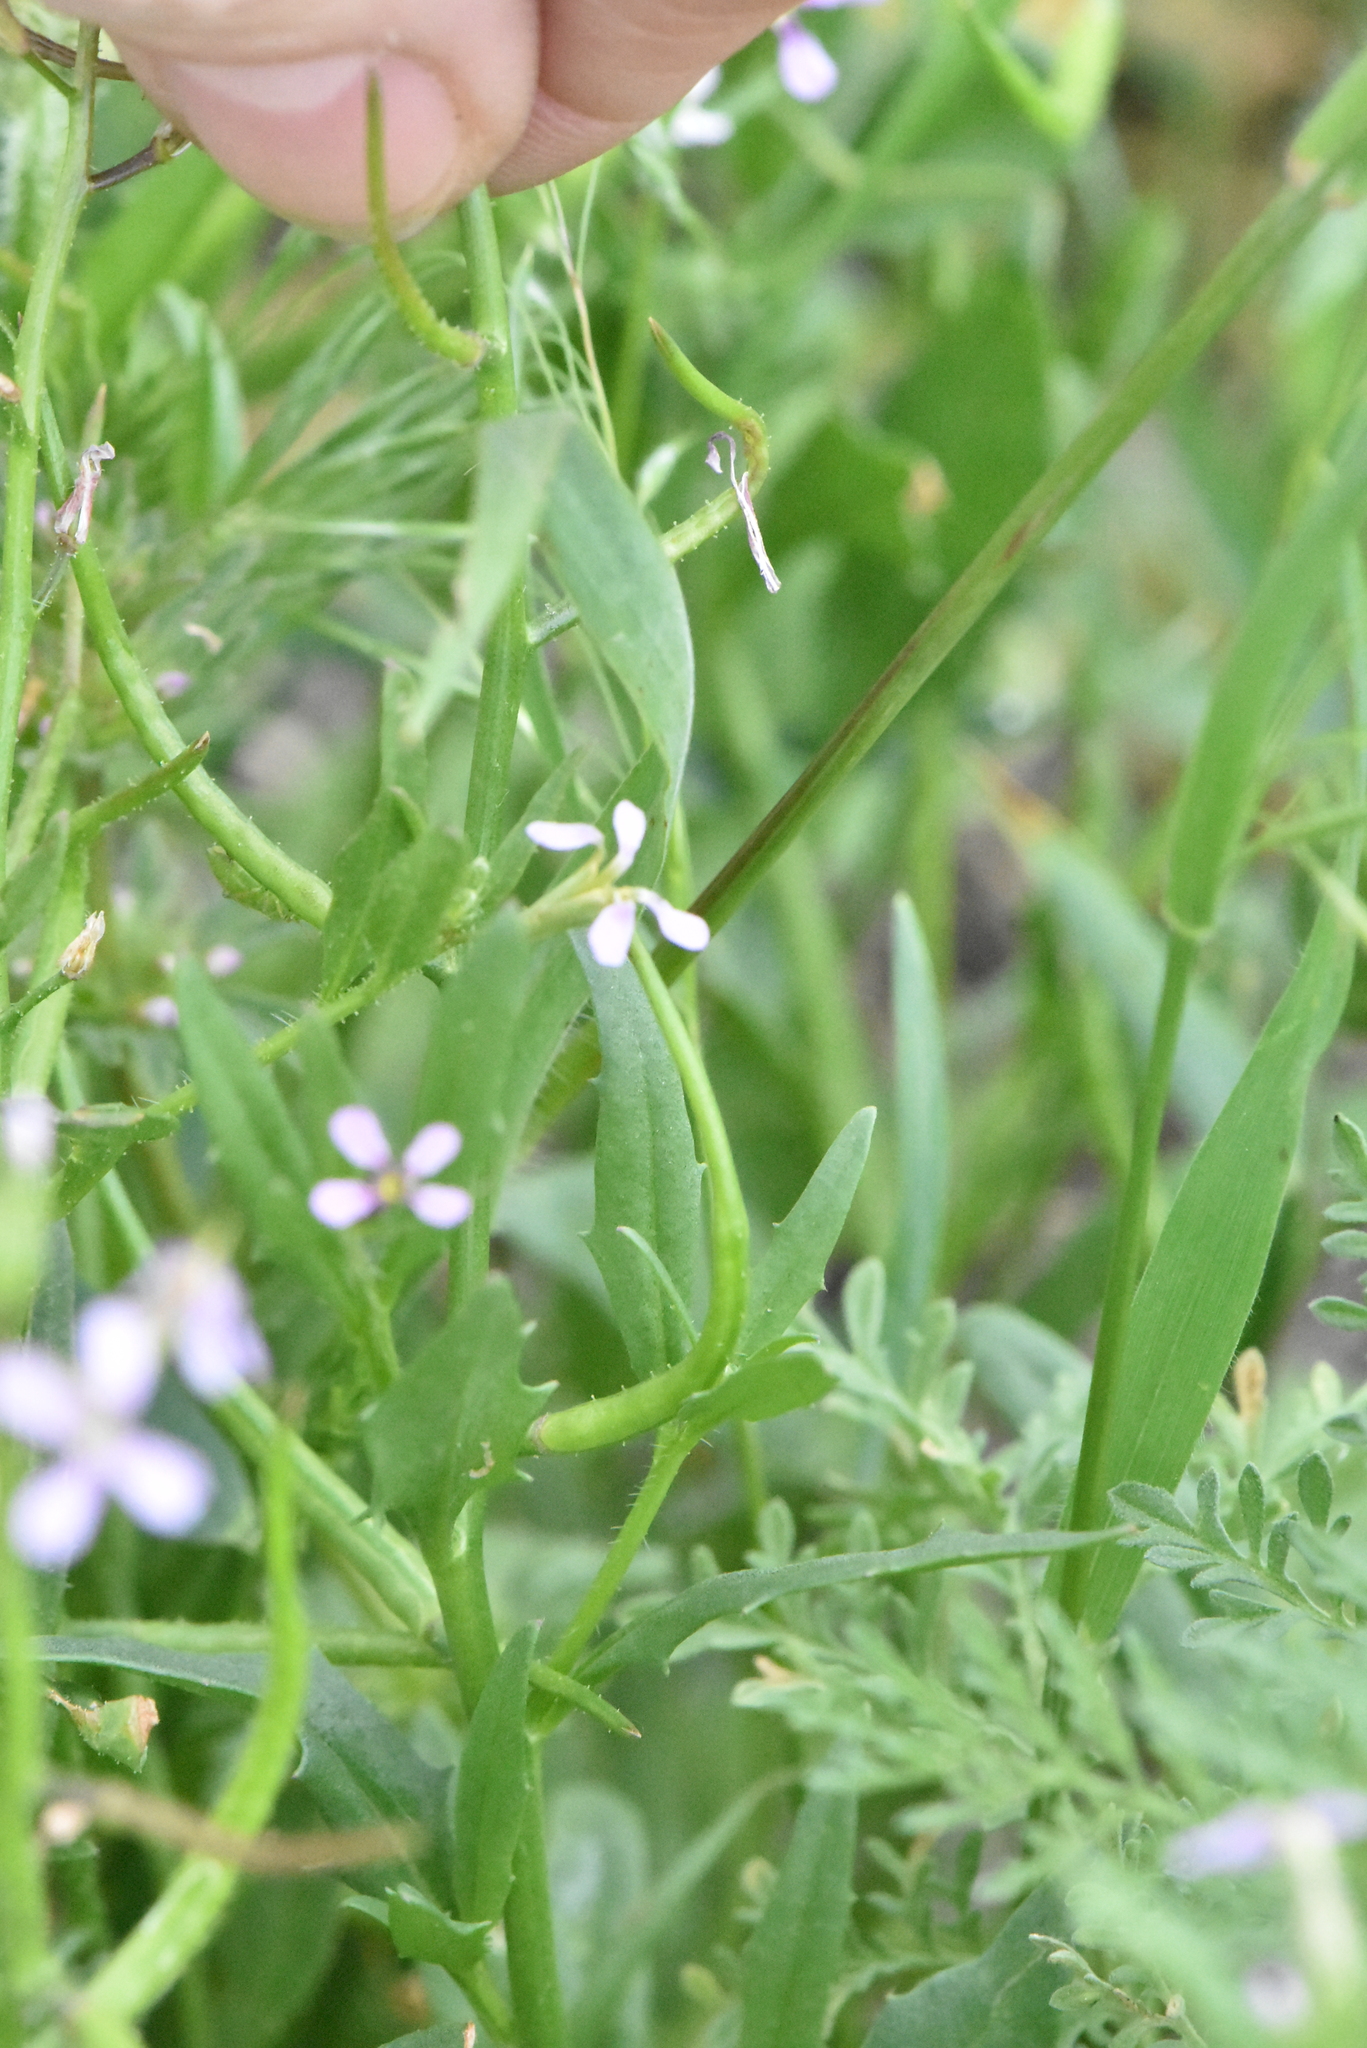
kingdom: Plantae
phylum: Tracheophyta
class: Magnoliopsida
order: Brassicales
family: Brassicaceae
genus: Chorispora
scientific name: Chorispora tenella
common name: Crossflower
